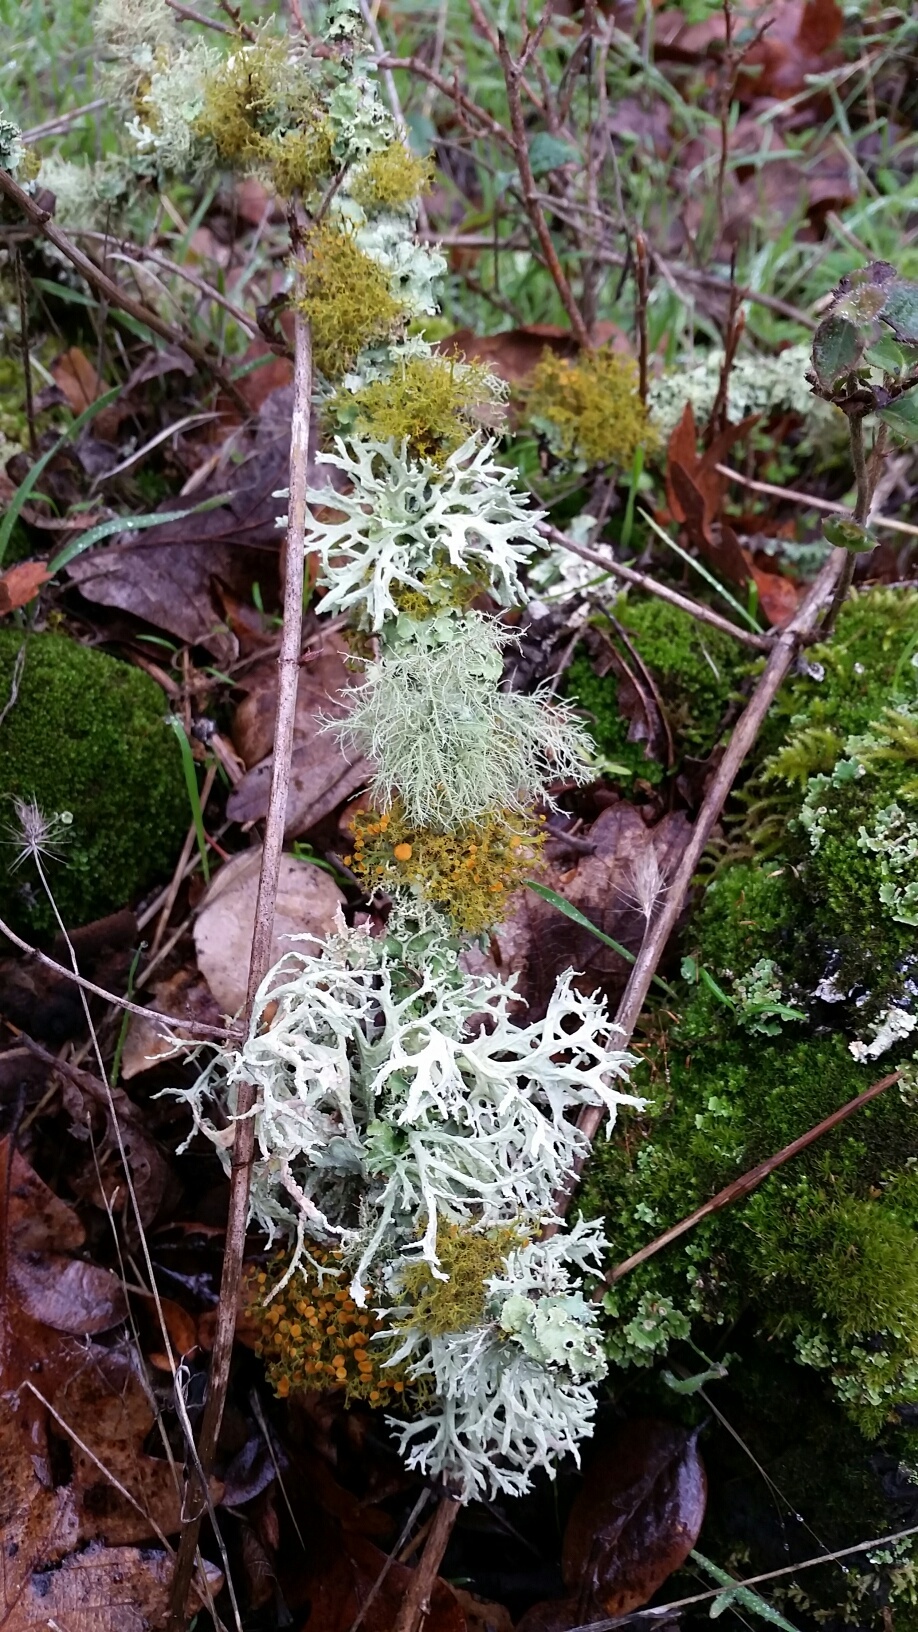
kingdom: Fungi
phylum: Ascomycota
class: Lecanoromycetes
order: Lecanorales
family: Parmeliaceae
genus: Evernia
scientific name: Evernia prunastri
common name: Oak moss
